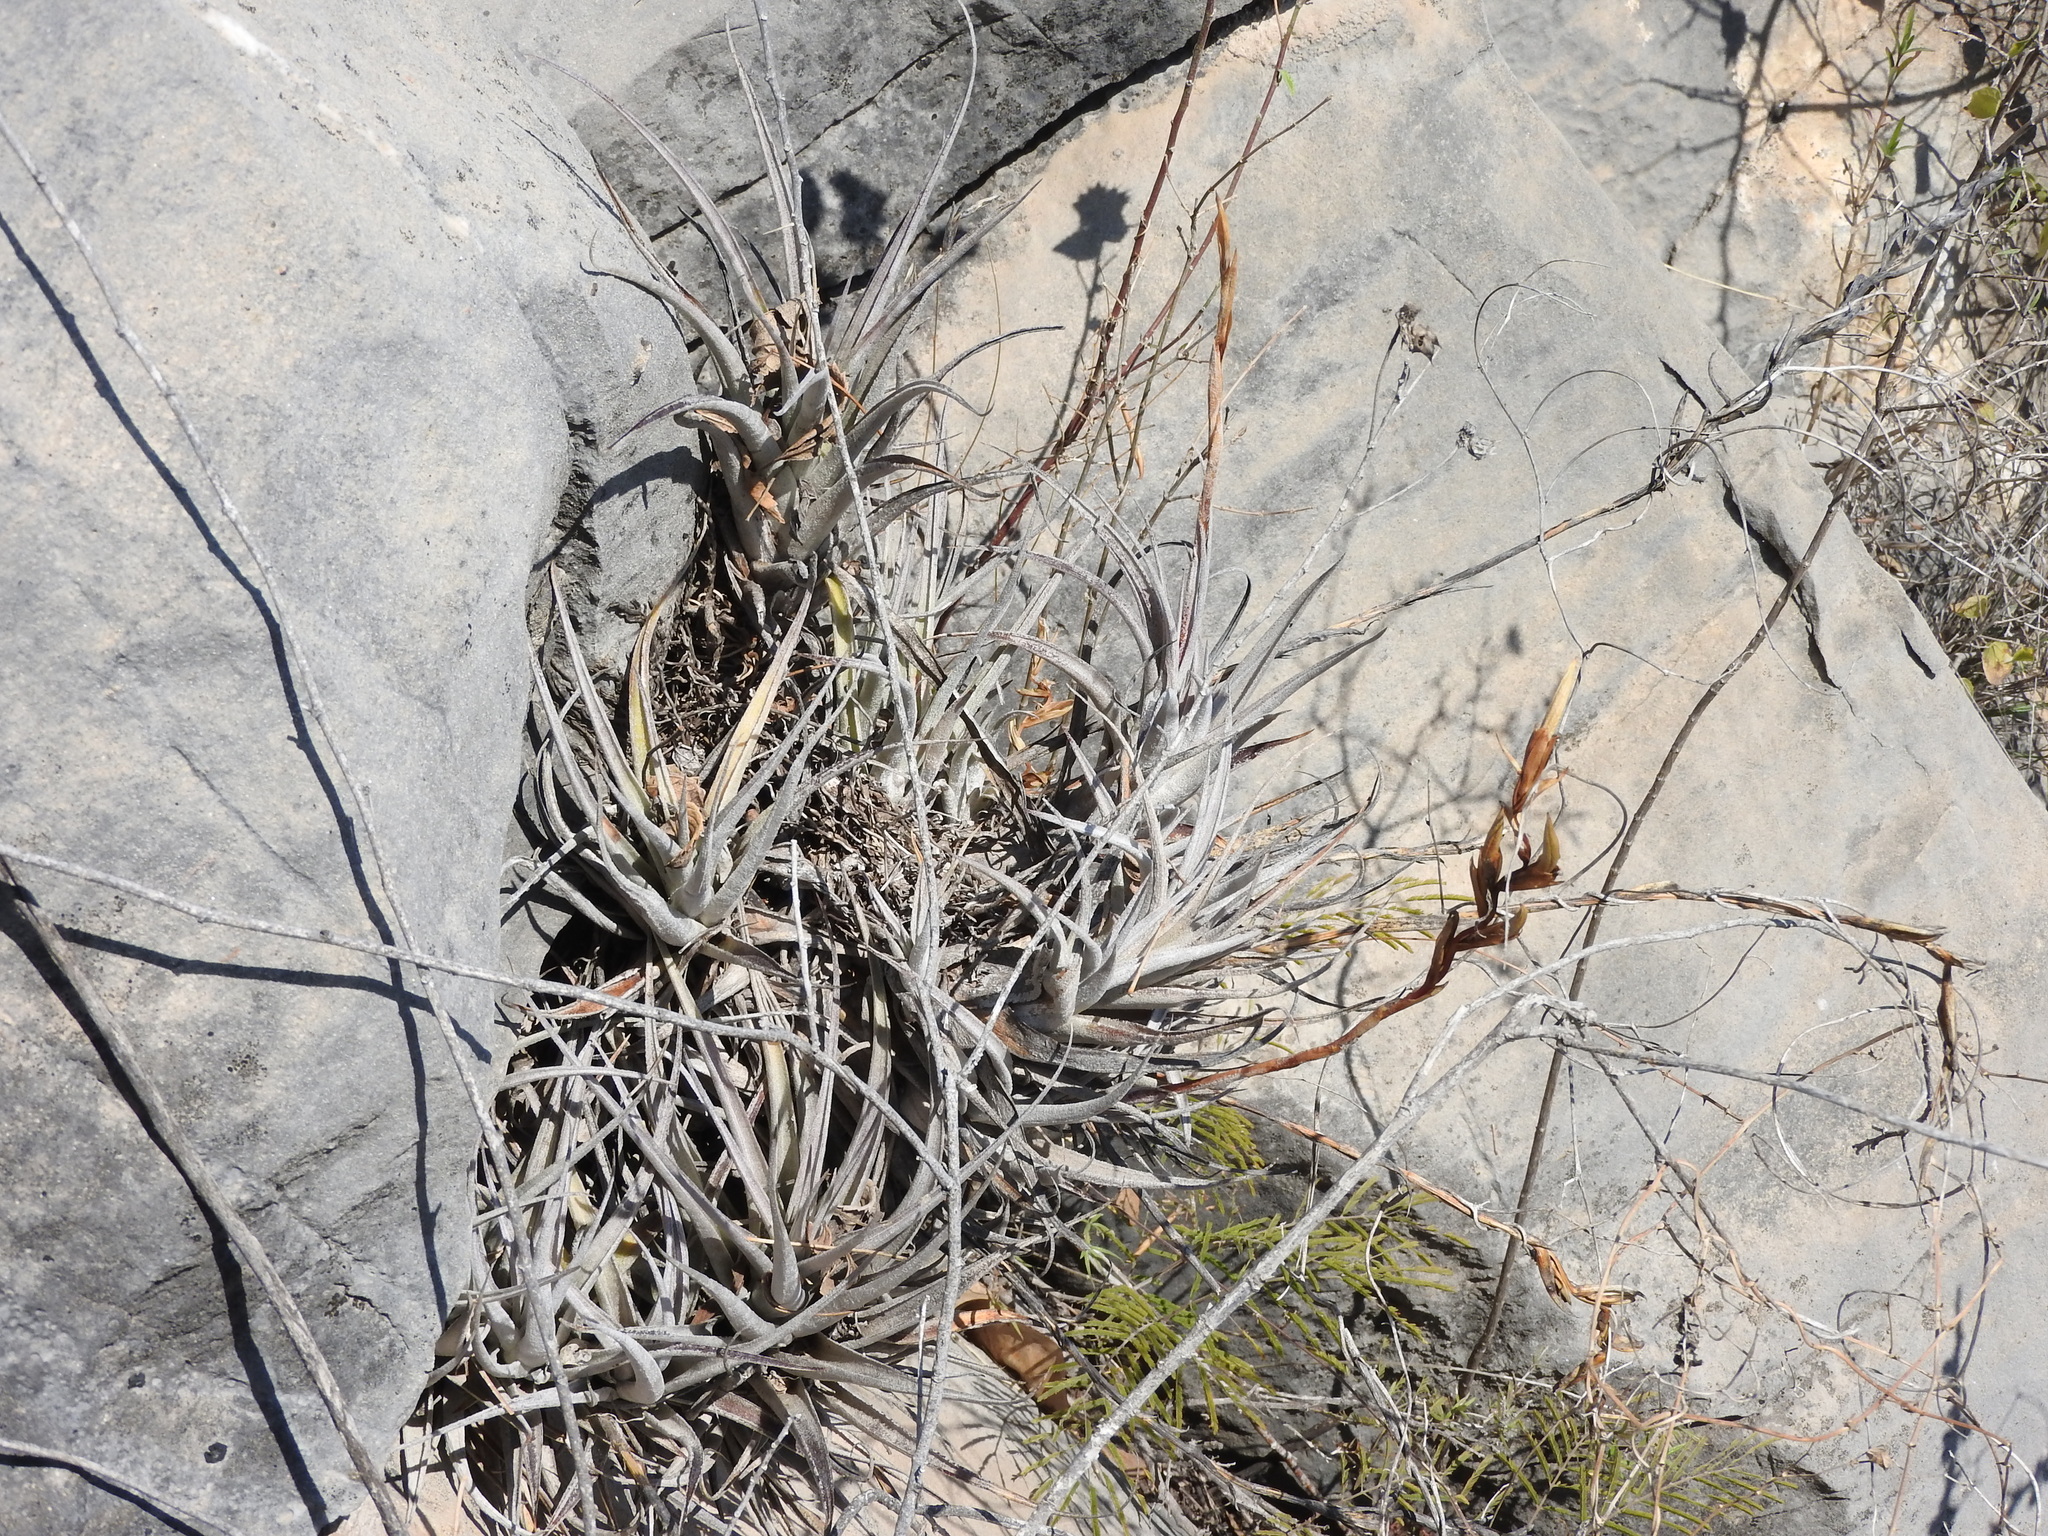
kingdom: Plantae
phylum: Tracheophyta
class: Liliopsida
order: Poales
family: Bromeliaceae
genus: Tillandsia
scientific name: Tillandsia albida
